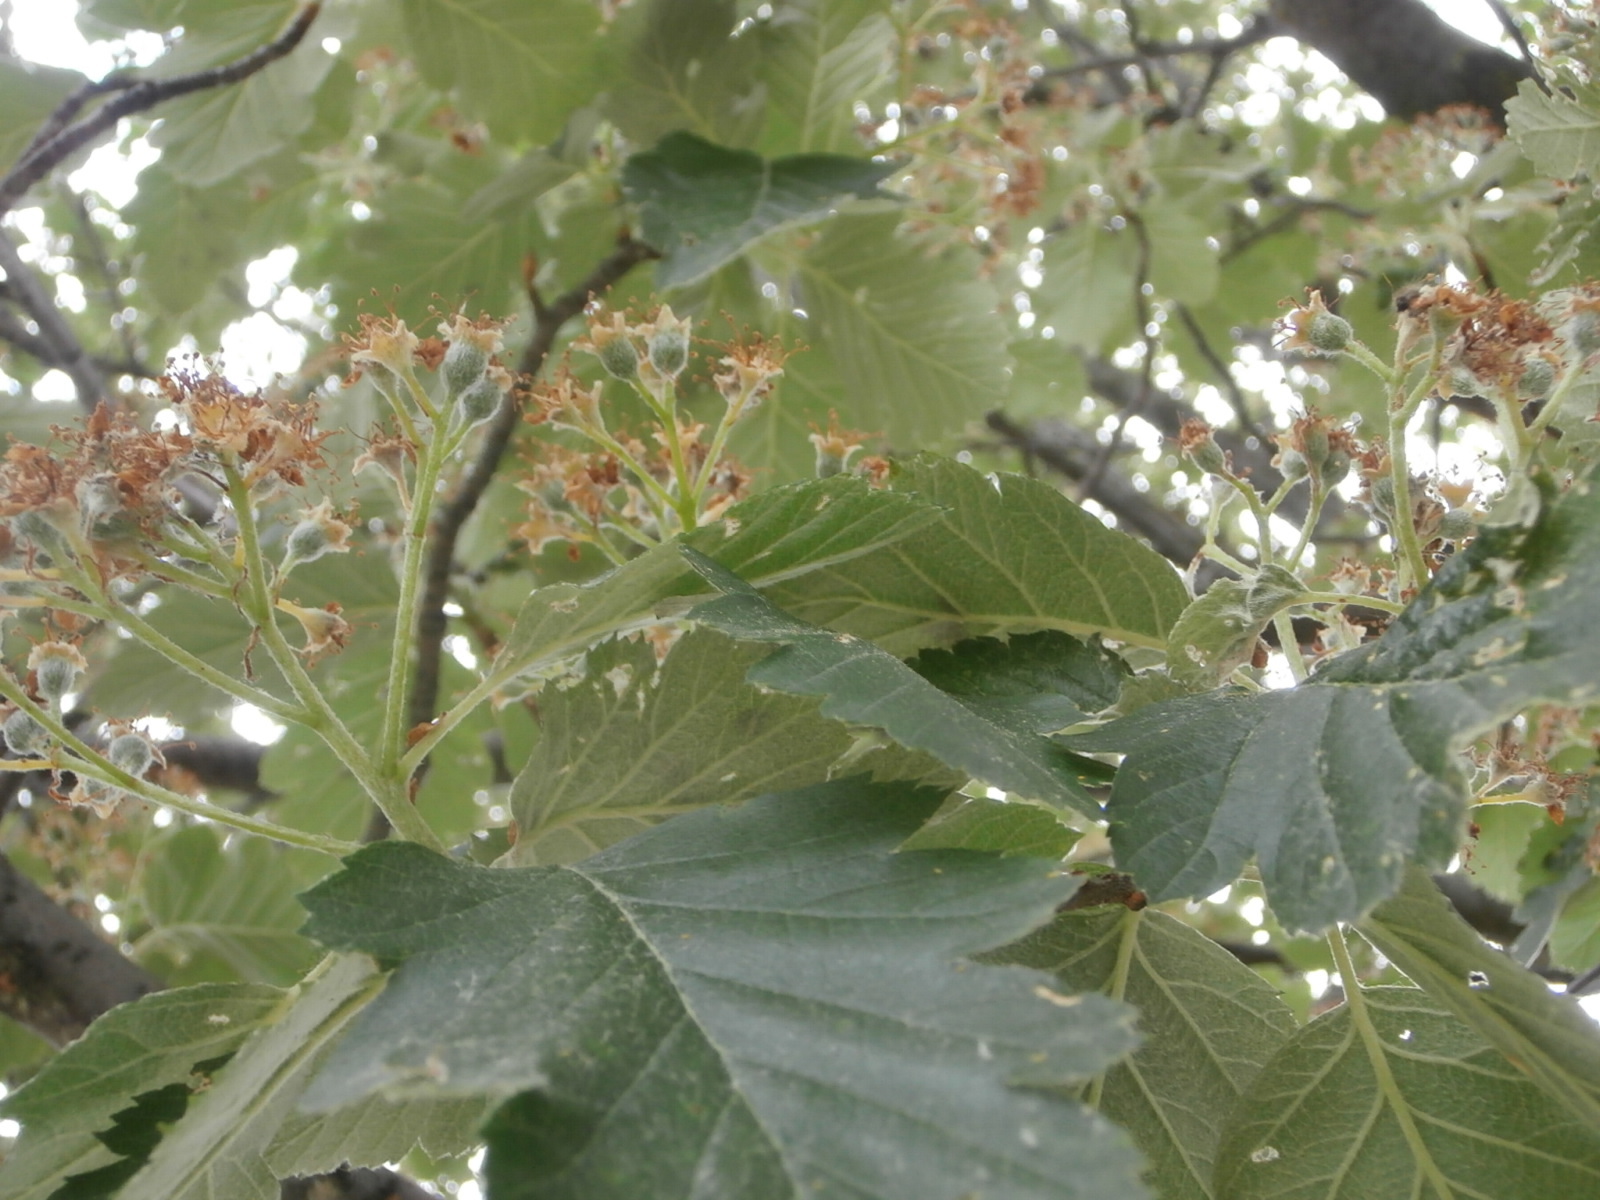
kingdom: Plantae
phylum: Tracheophyta
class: Magnoliopsida
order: Rosales
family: Rosaceae
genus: Crataegus
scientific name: Crataegus mollis
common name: Downy hawthorn
